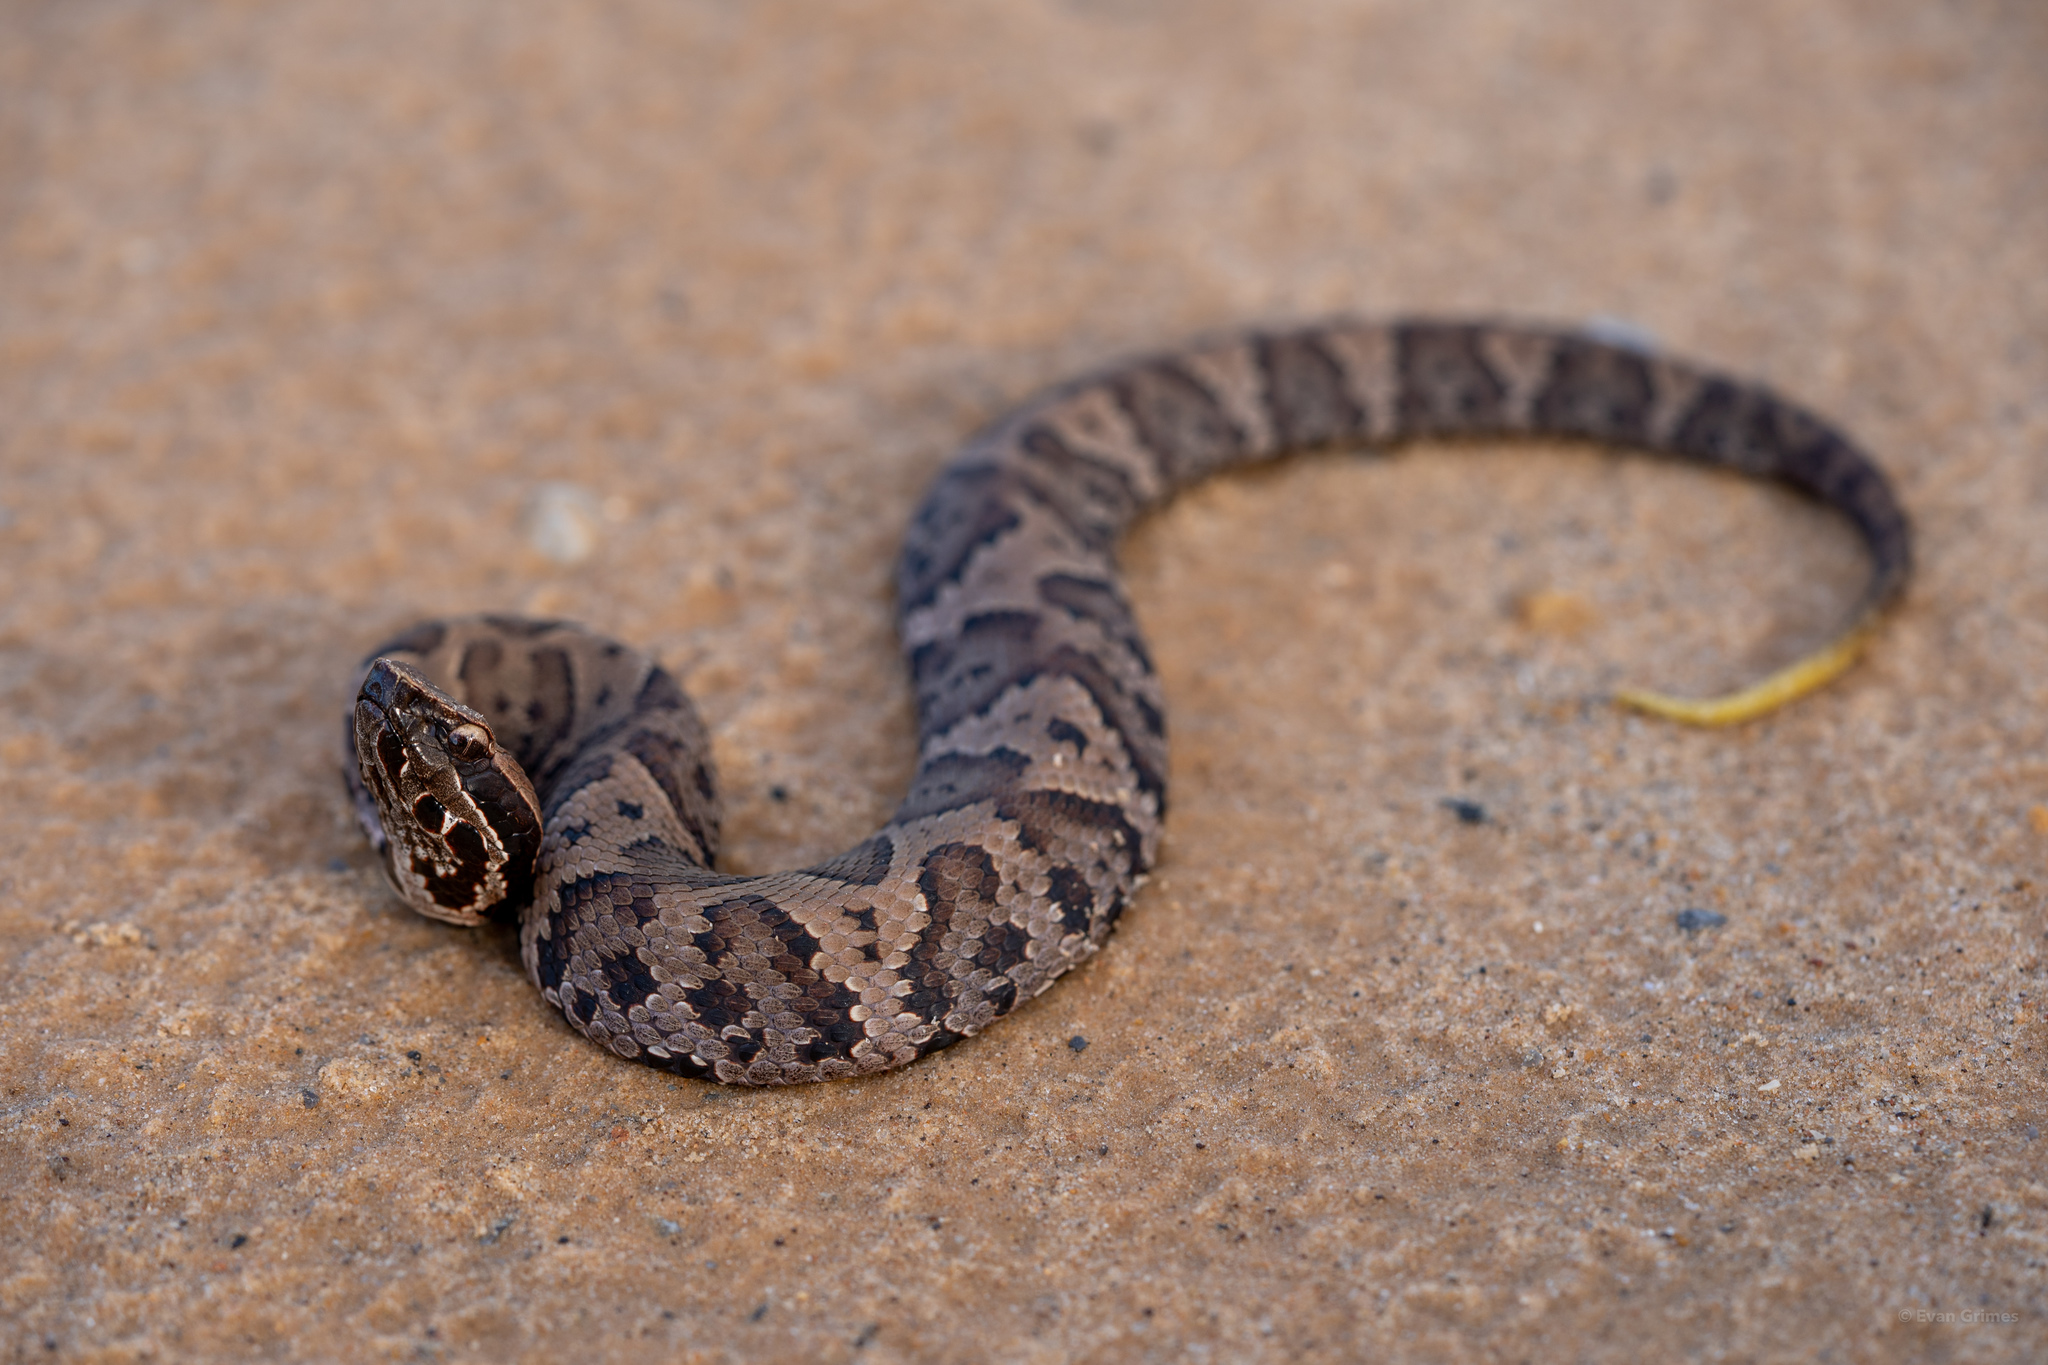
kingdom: Animalia
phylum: Chordata
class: Squamata
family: Viperidae
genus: Agkistrodon
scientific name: Agkistrodon piscivorus
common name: Cottonmouth
